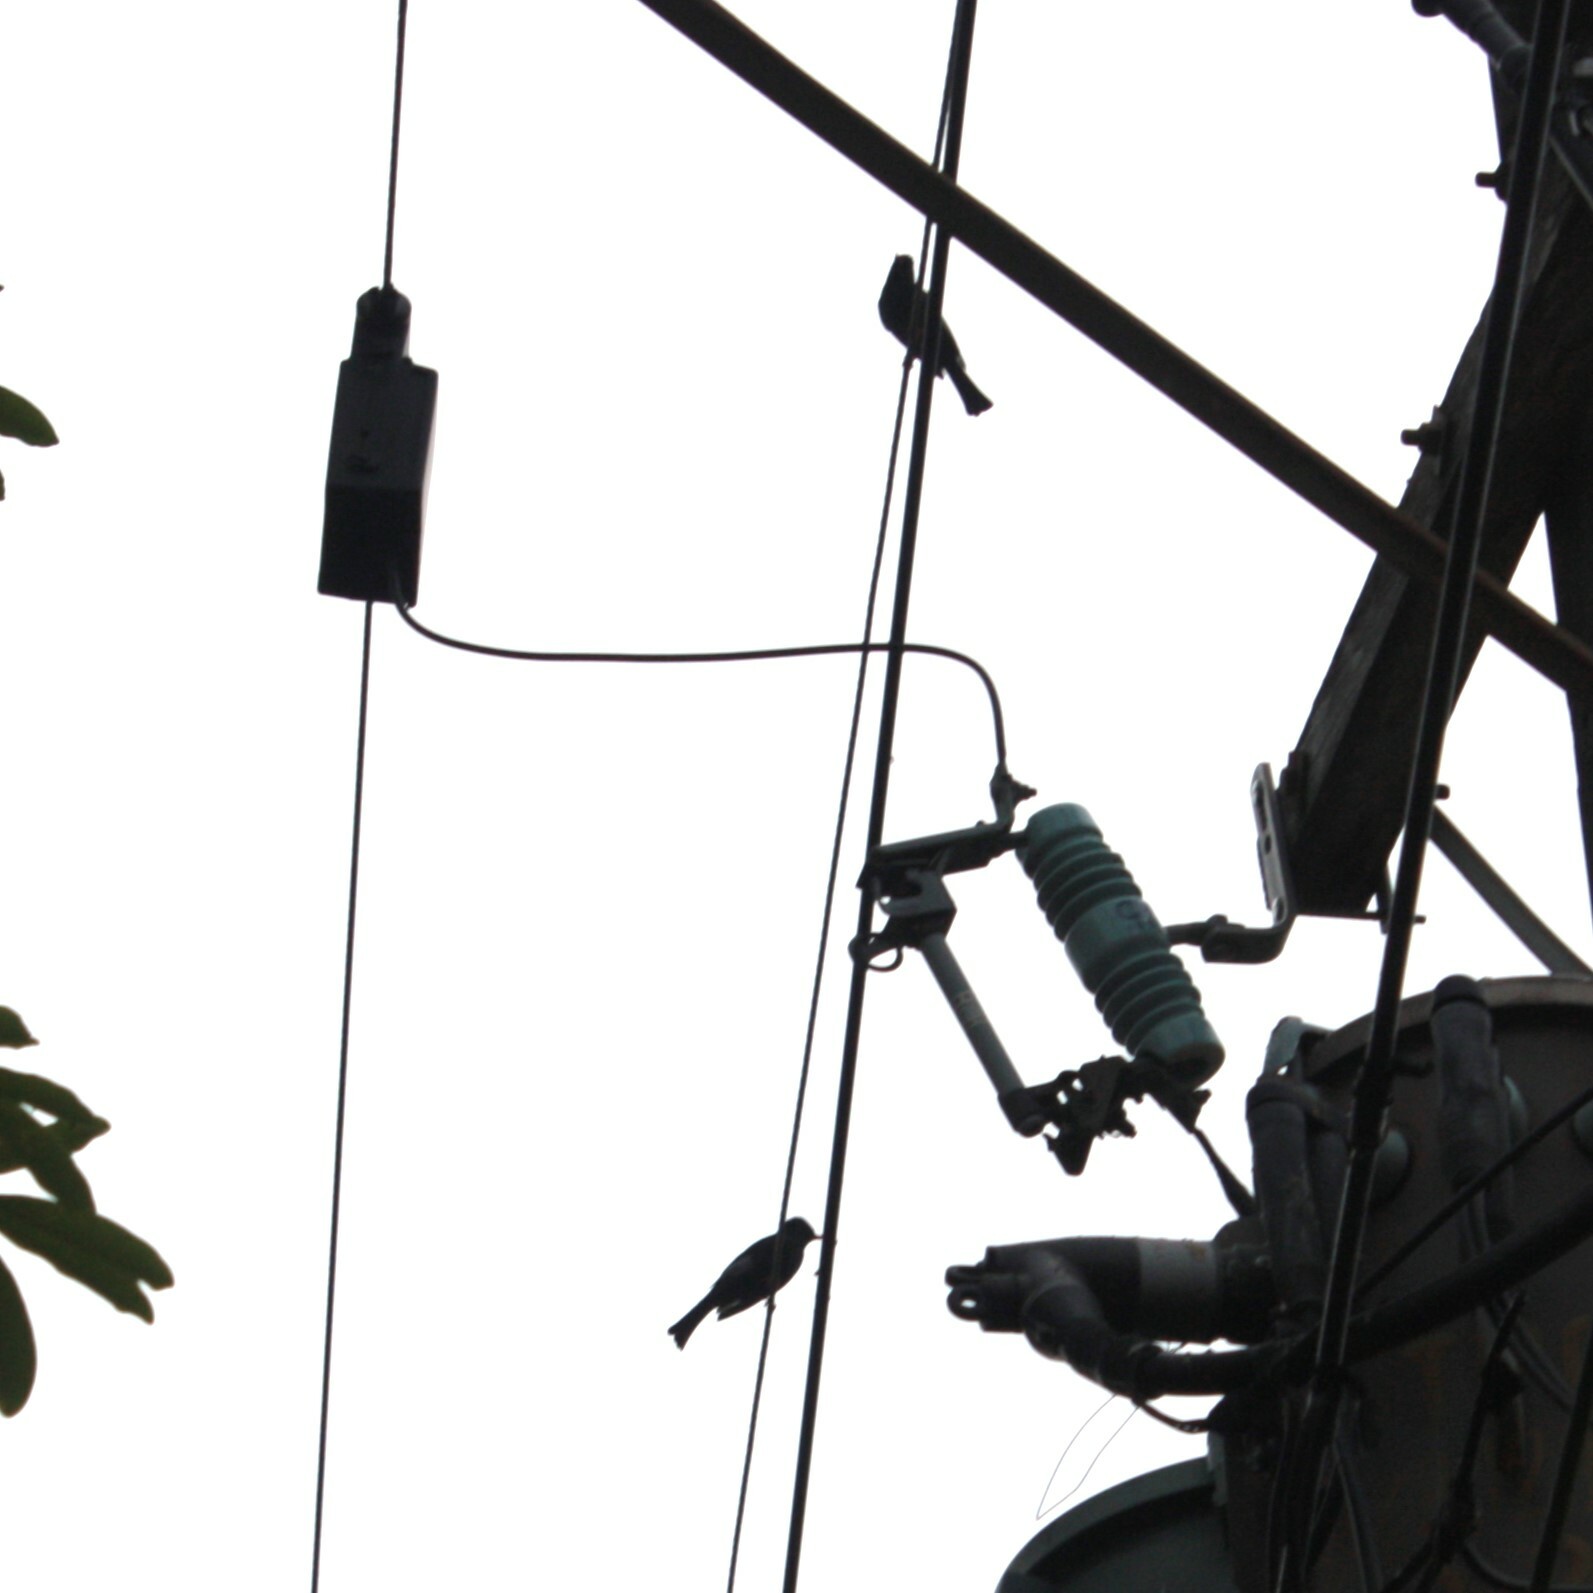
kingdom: Animalia
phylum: Chordata
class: Aves
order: Passeriformes
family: Pycnonotidae
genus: Hypsipetes
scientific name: Hypsipetes leucocephalus
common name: Black bulbul
